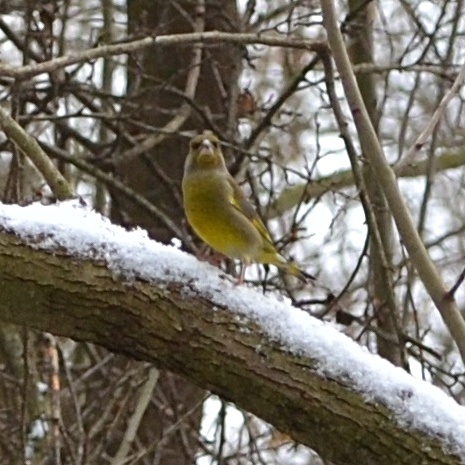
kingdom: Plantae
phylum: Tracheophyta
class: Liliopsida
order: Poales
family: Poaceae
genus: Chloris
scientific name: Chloris chloris
